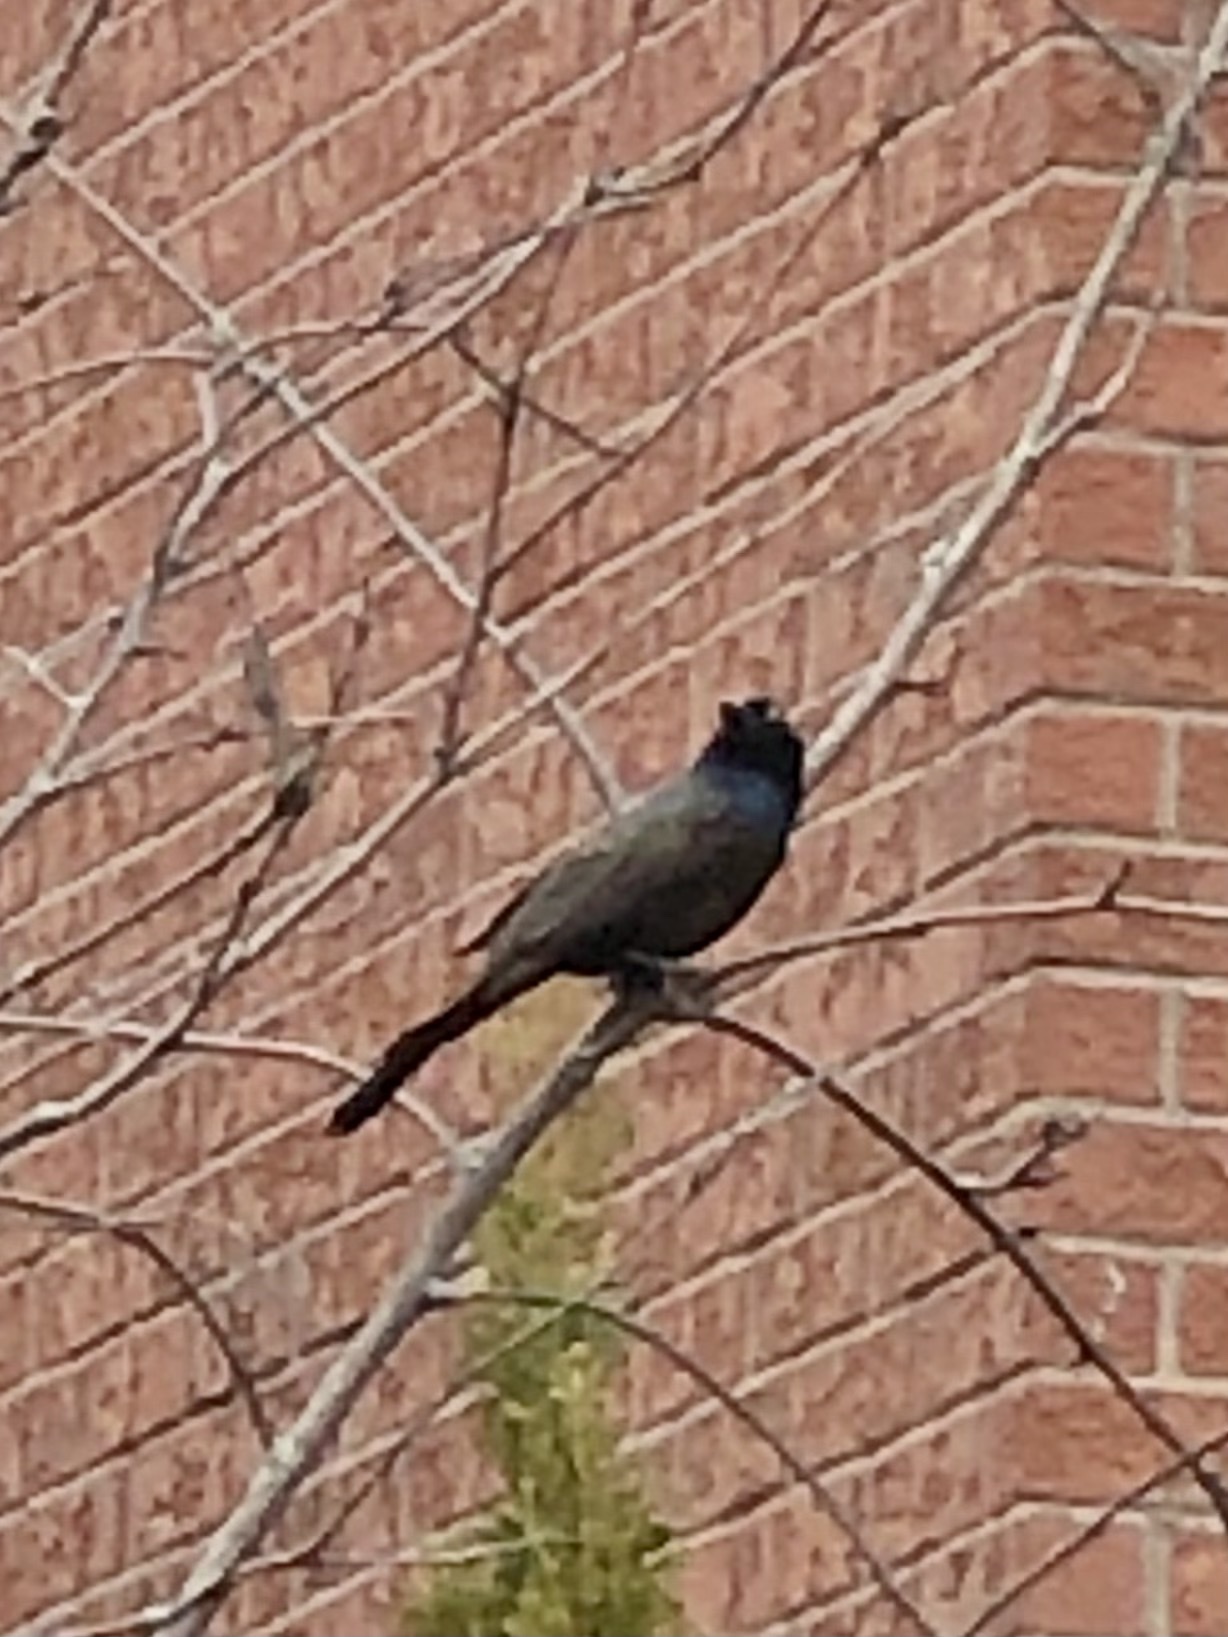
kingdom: Animalia
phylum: Chordata
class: Aves
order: Passeriformes
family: Icteridae
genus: Quiscalus
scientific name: Quiscalus quiscula
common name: Common grackle
